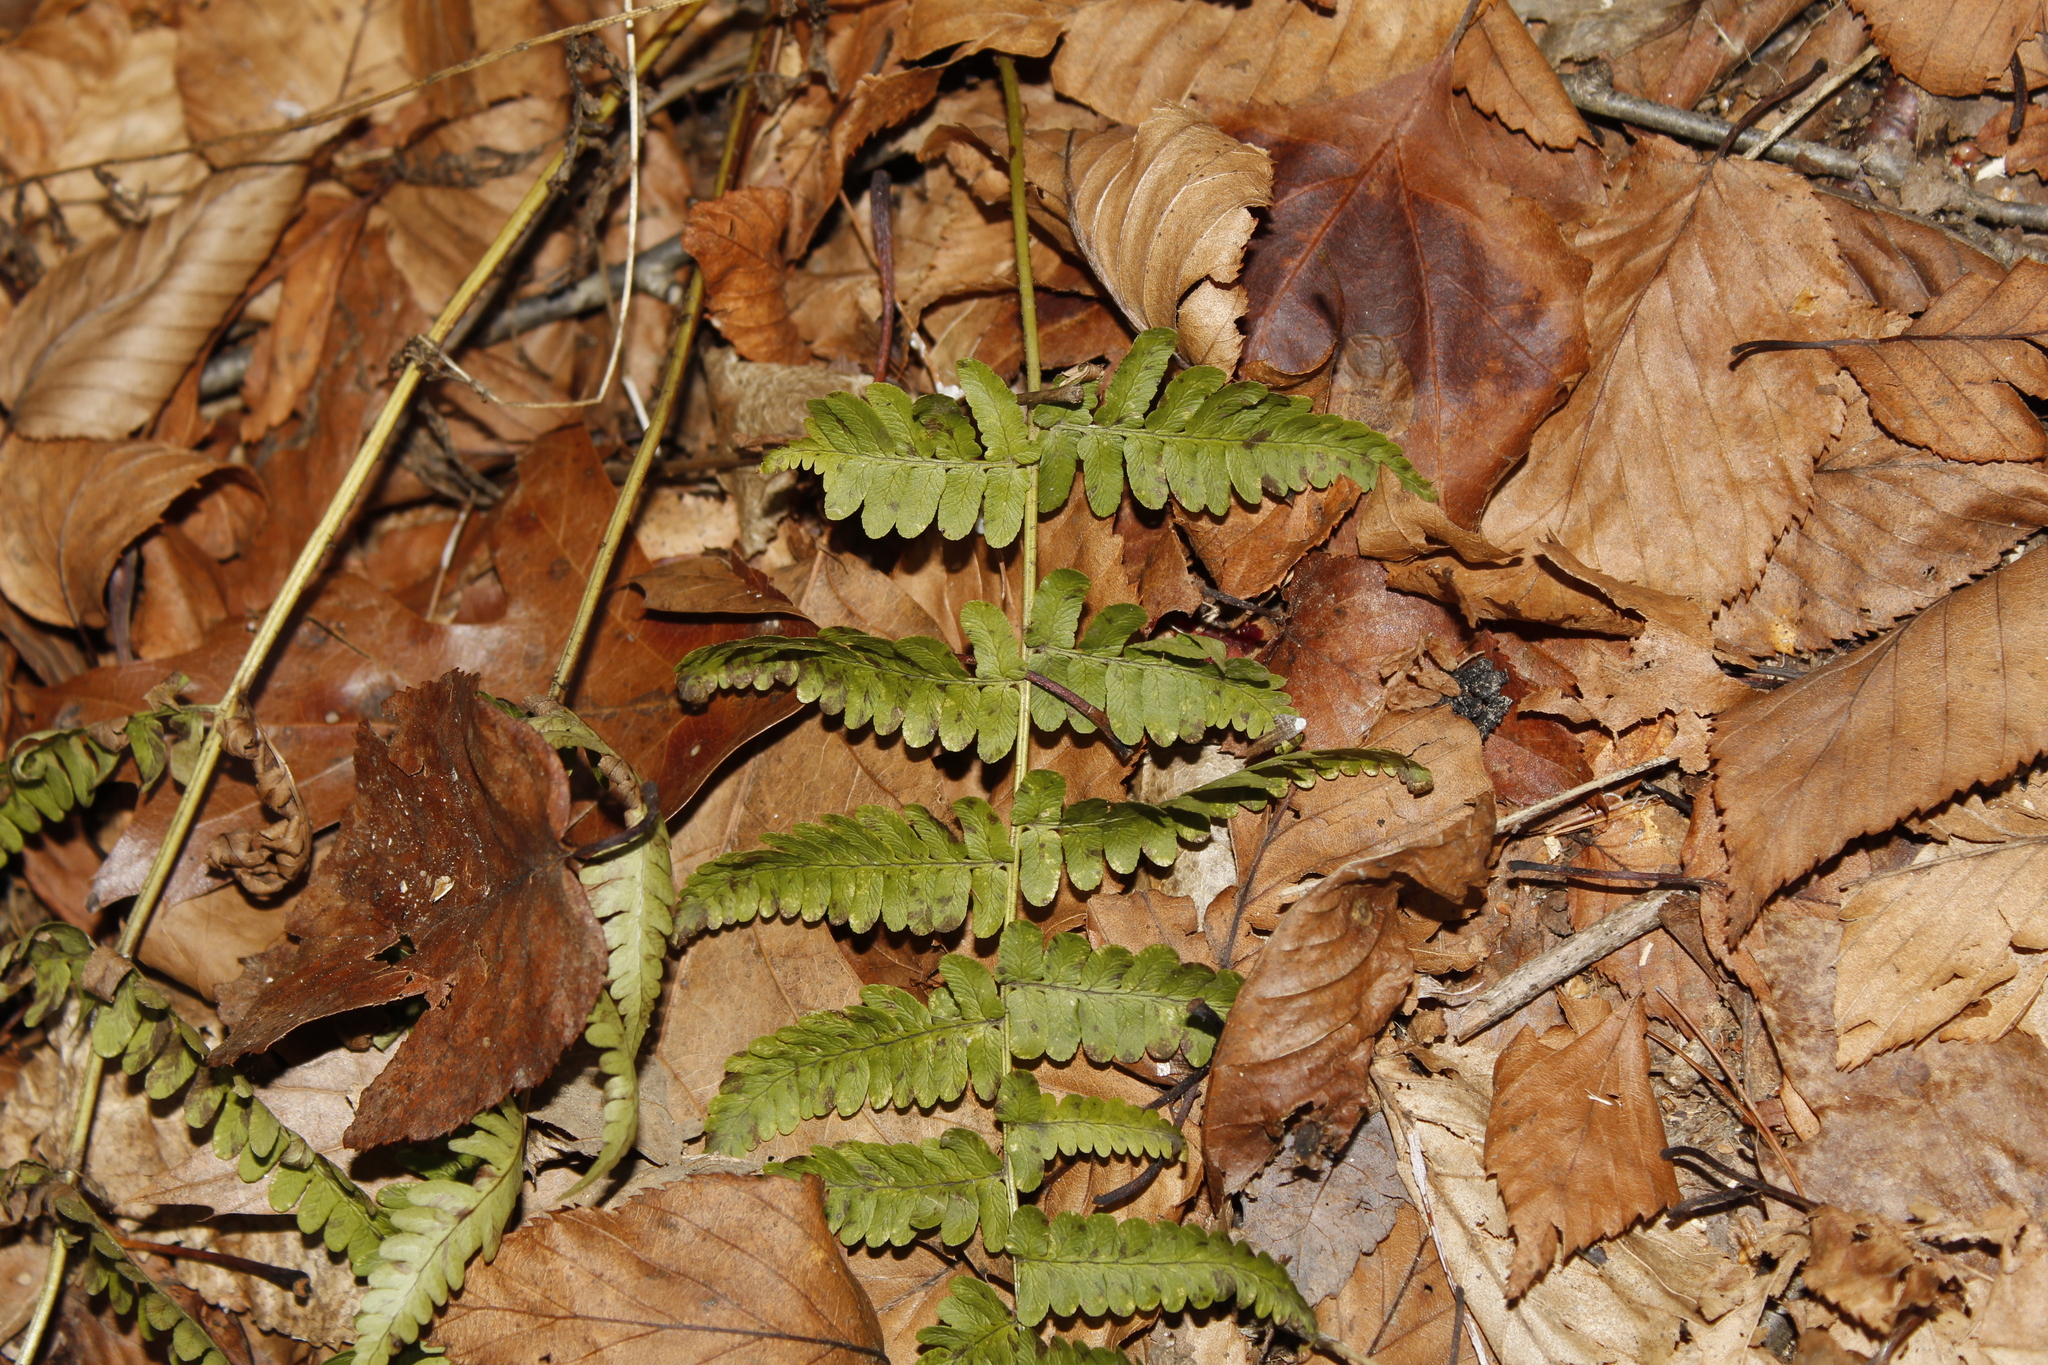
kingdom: Plantae
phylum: Tracheophyta
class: Polypodiopsida
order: Polypodiales
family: Dryopteridaceae
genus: Dryopteris
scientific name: Dryopteris marginalis
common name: Marginal wood fern
